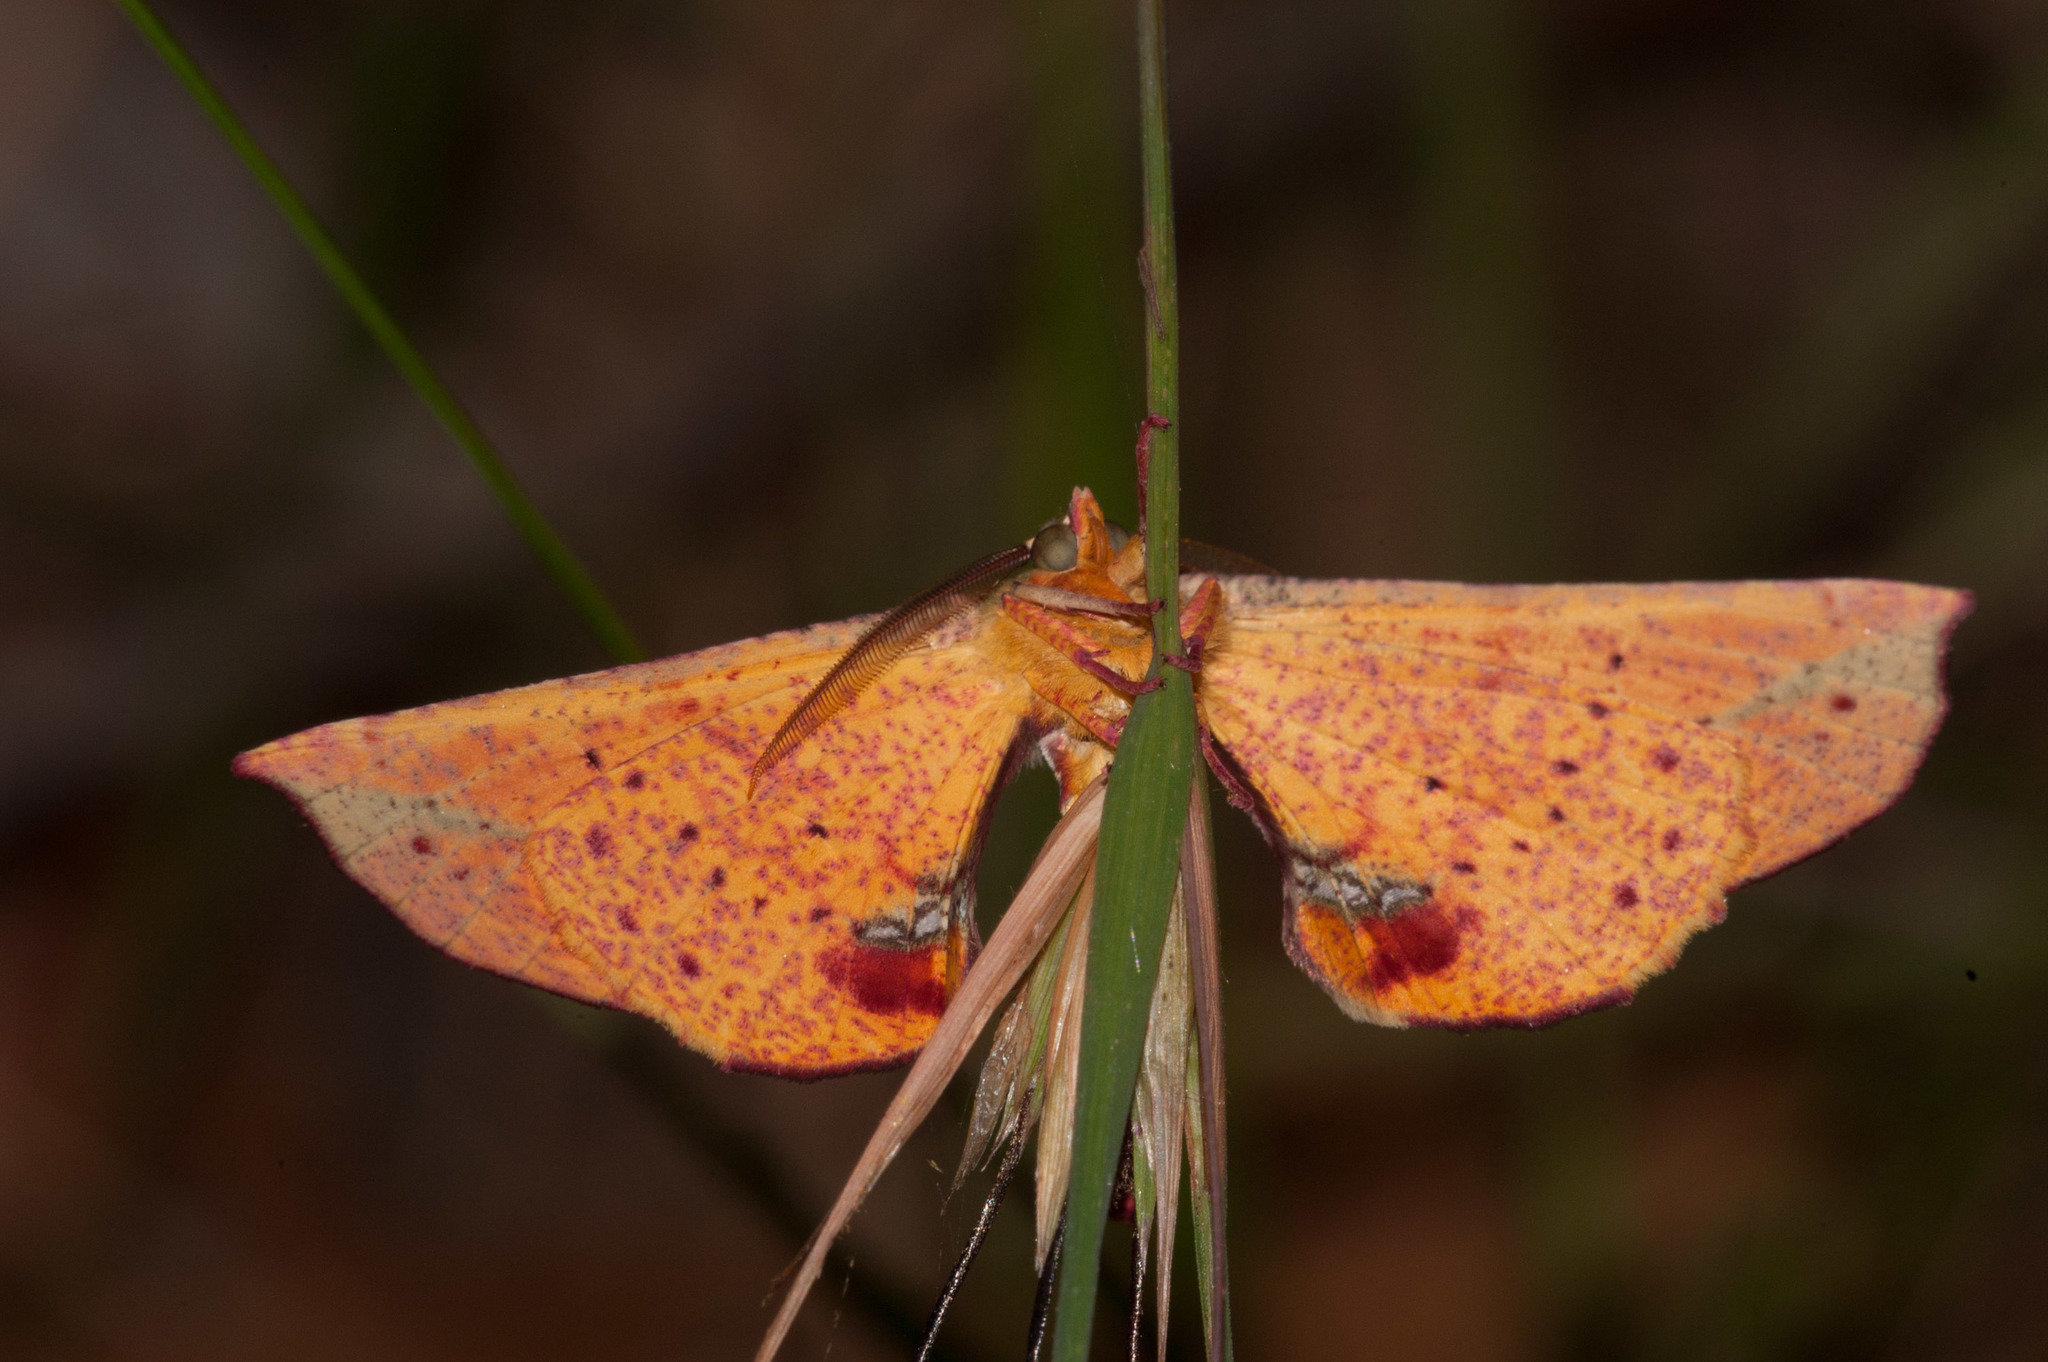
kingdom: Animalia
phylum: Arthropoda
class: Insecta
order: Lepidoptera
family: Geometridae
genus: Parepisparis
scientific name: Parepisparis lutosaria
